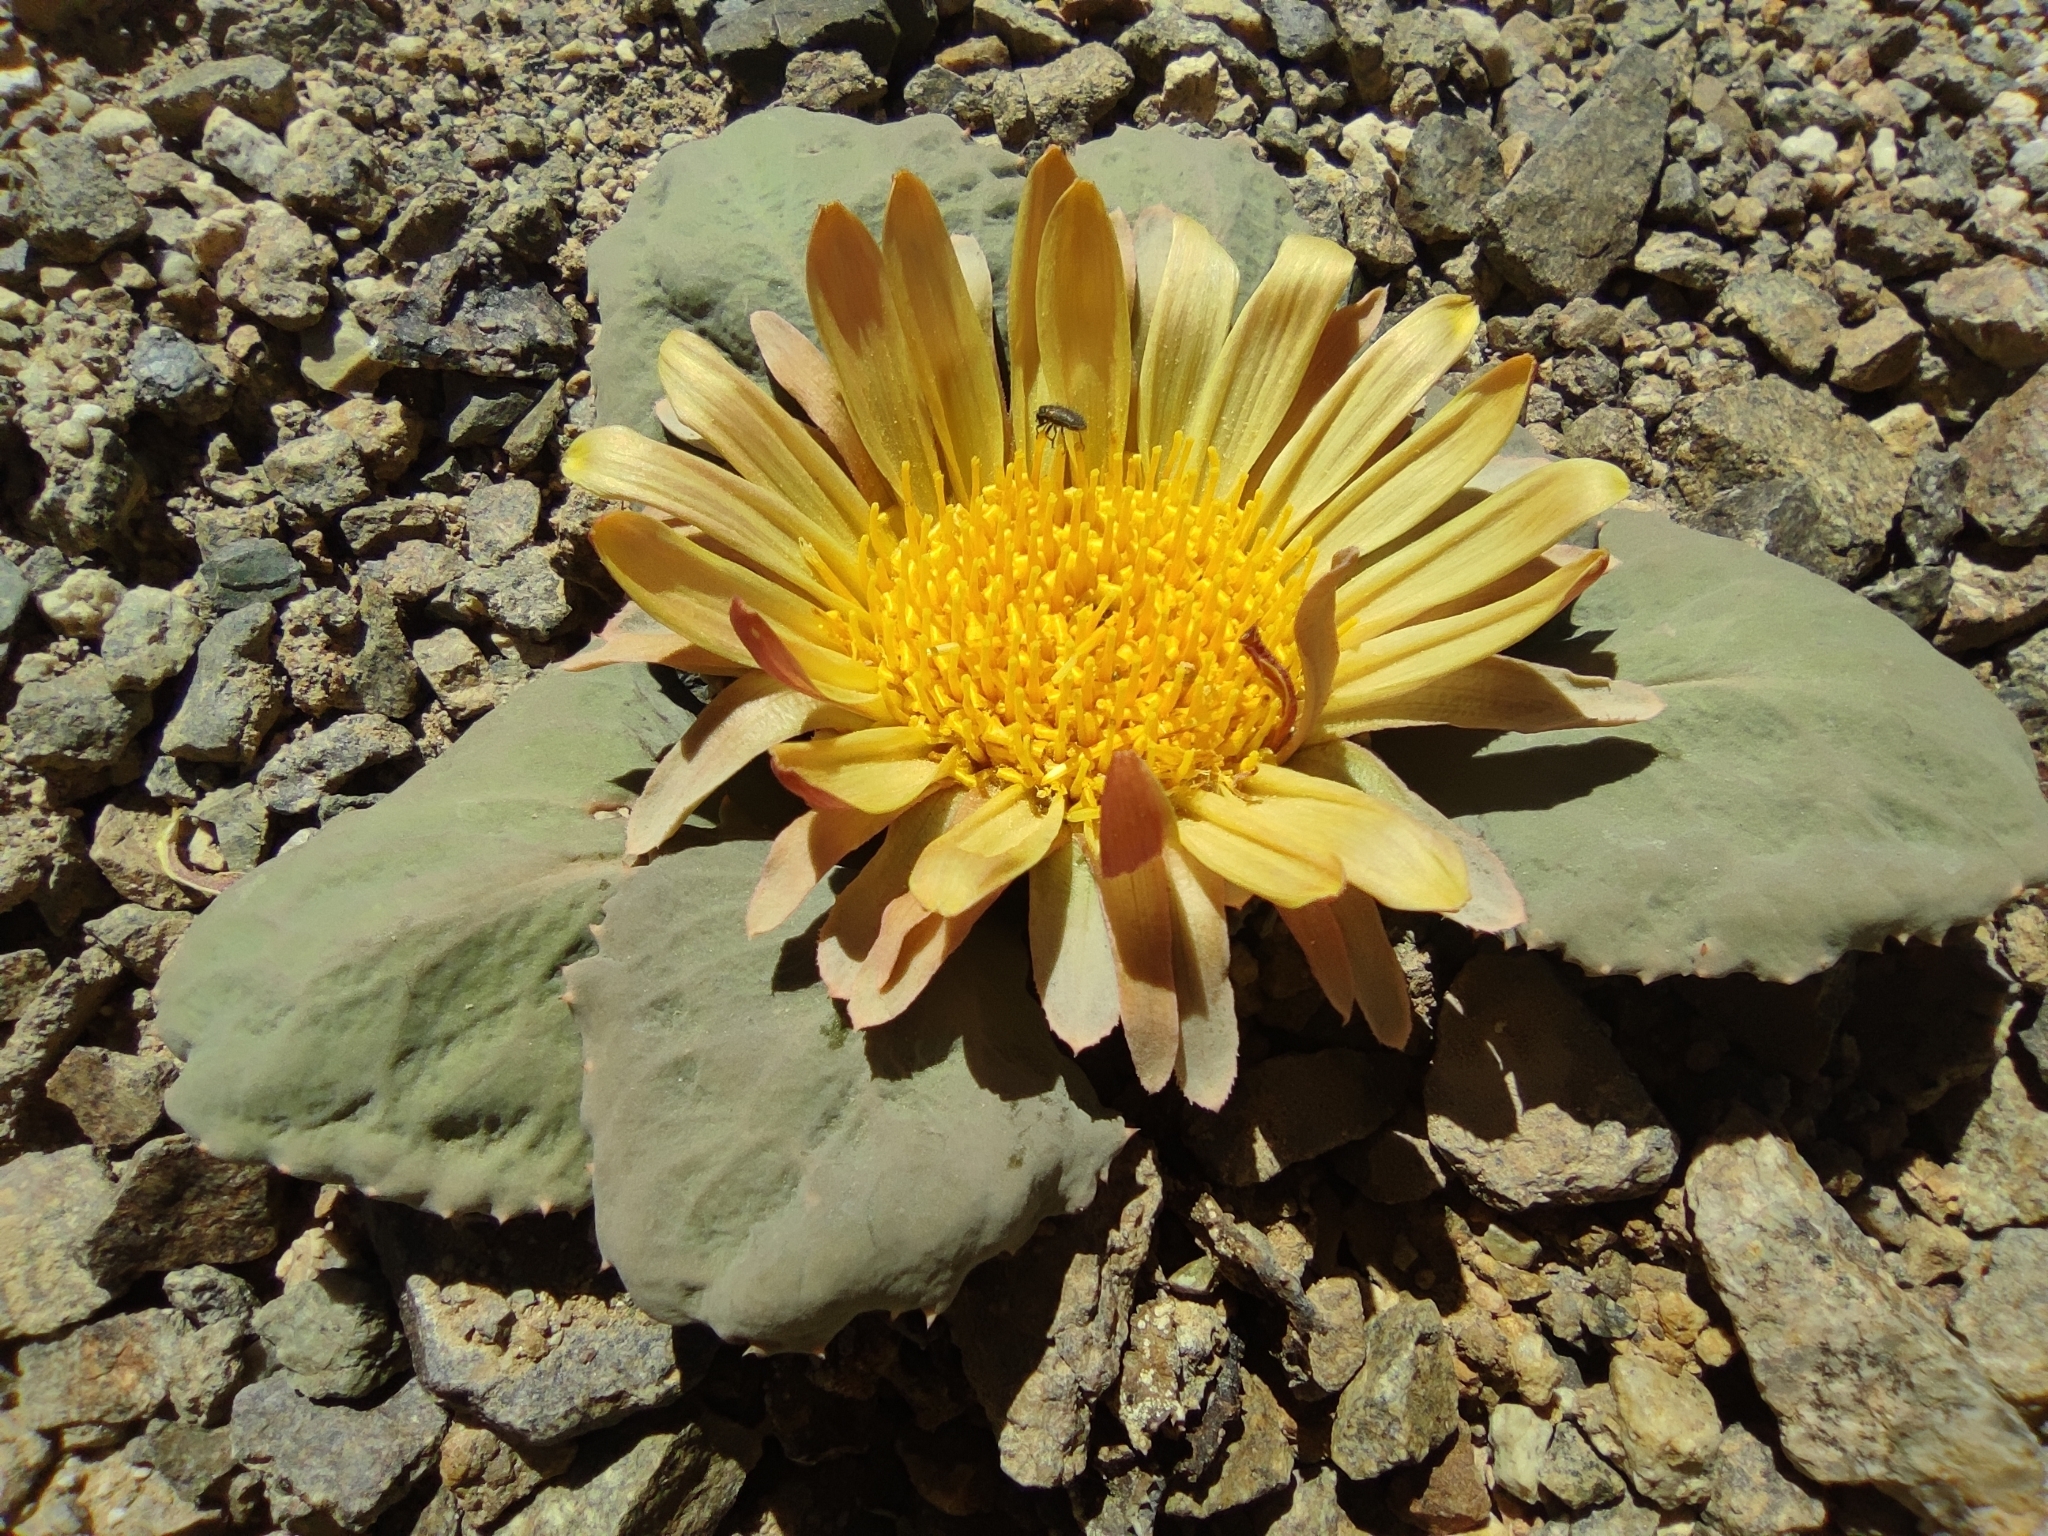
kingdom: Plantae
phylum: Tracheophyta
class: Magnoliopsida
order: Asterales
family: Asteraceae
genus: Pachylaena
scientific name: Pachylaena atriplicifolia
